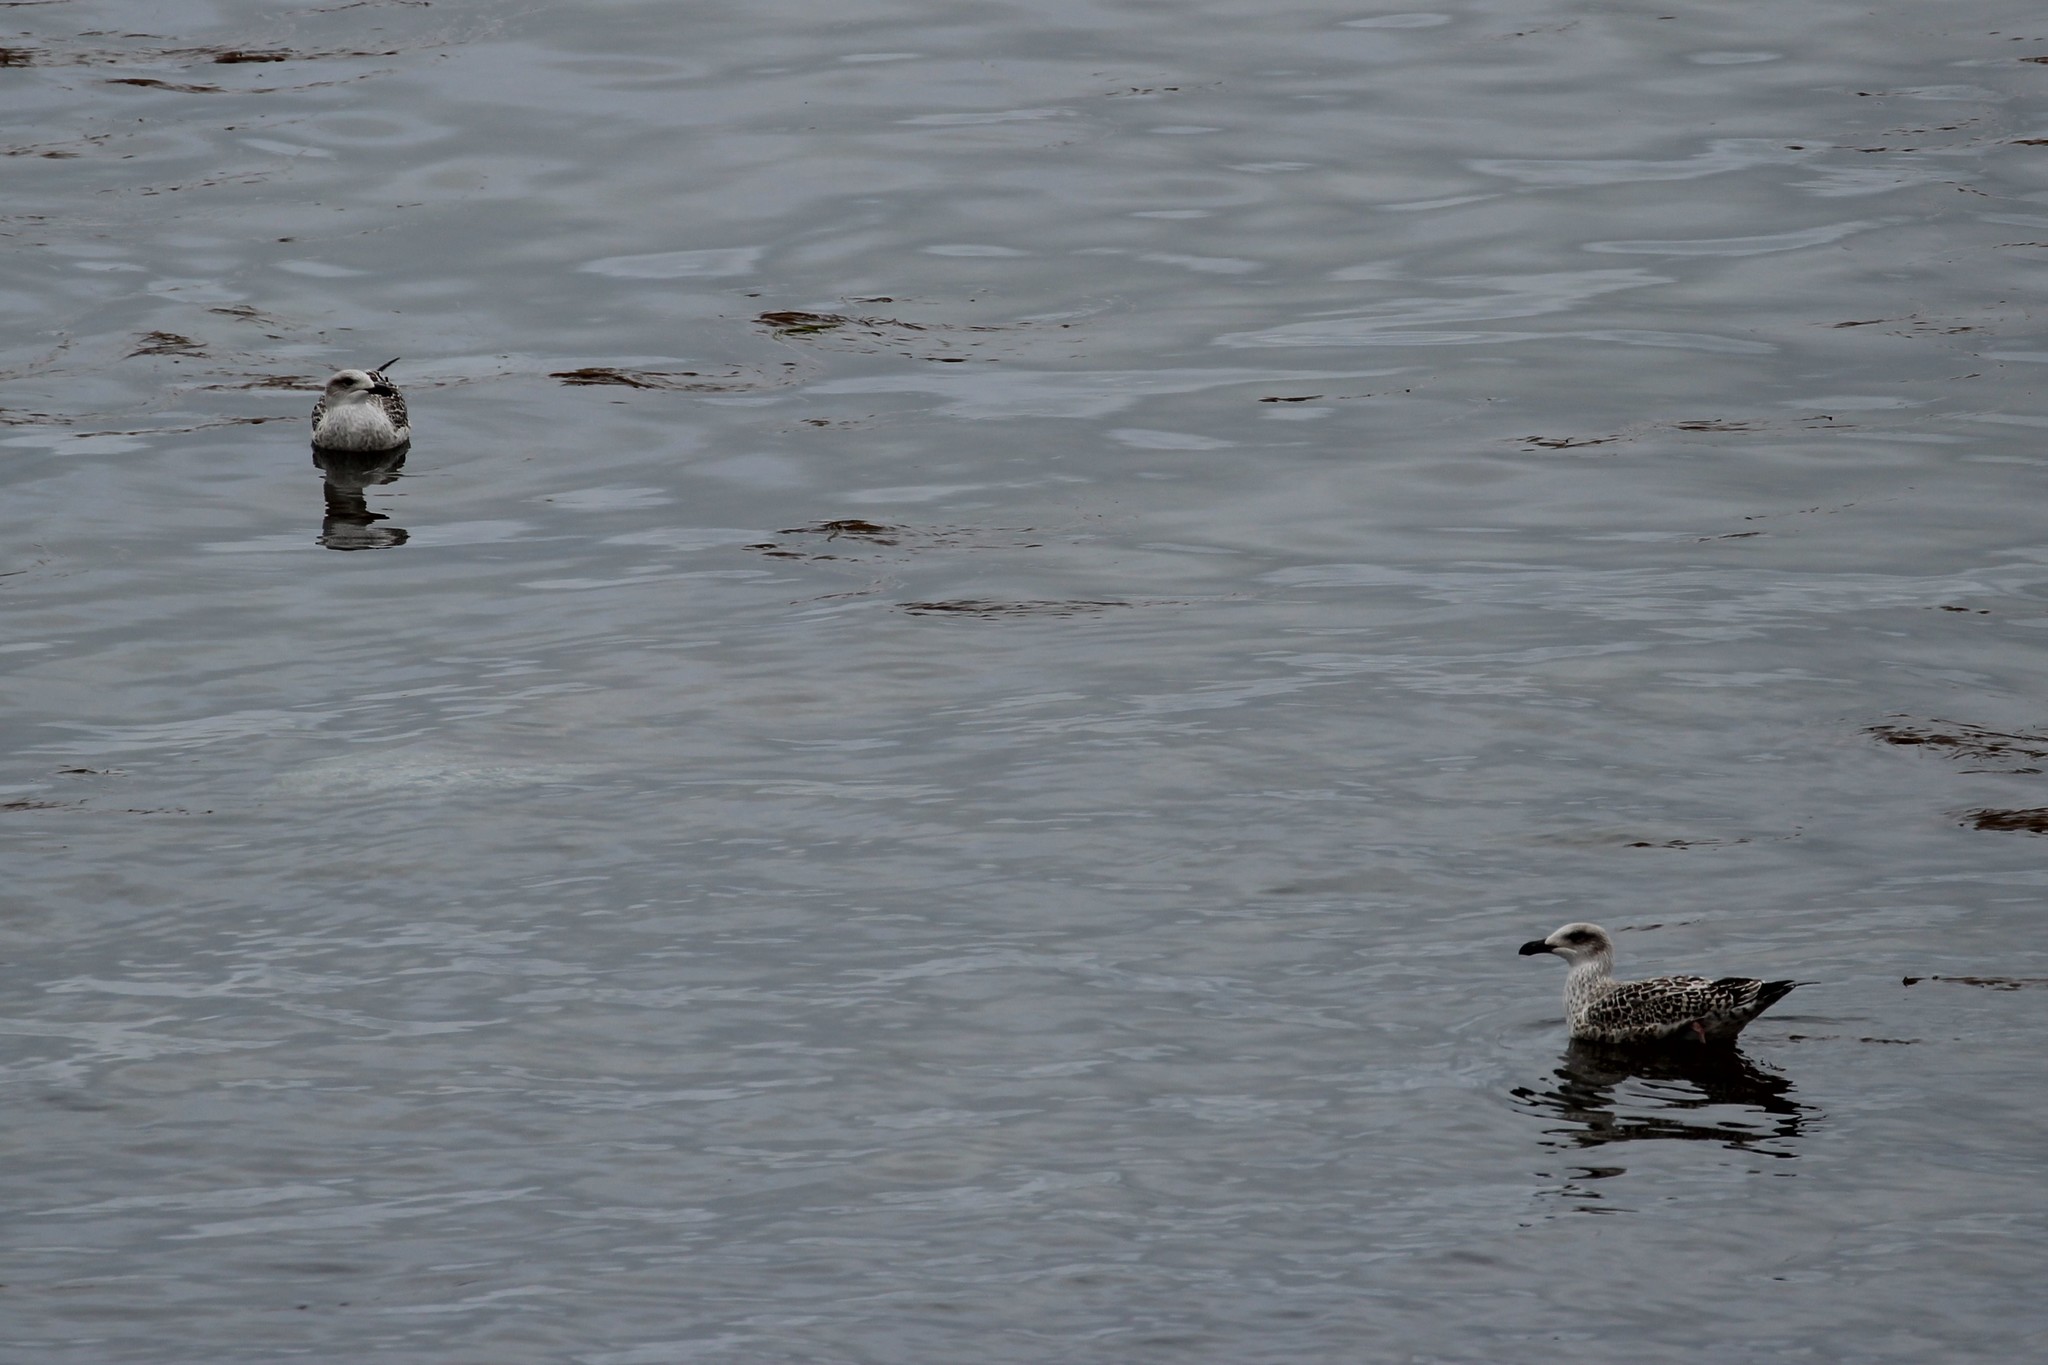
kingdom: Animalia
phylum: Chordata
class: Aves
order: Charadriiformes
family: Laridae
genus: Larus
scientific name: Larus marinus
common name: Great black-backed gull
